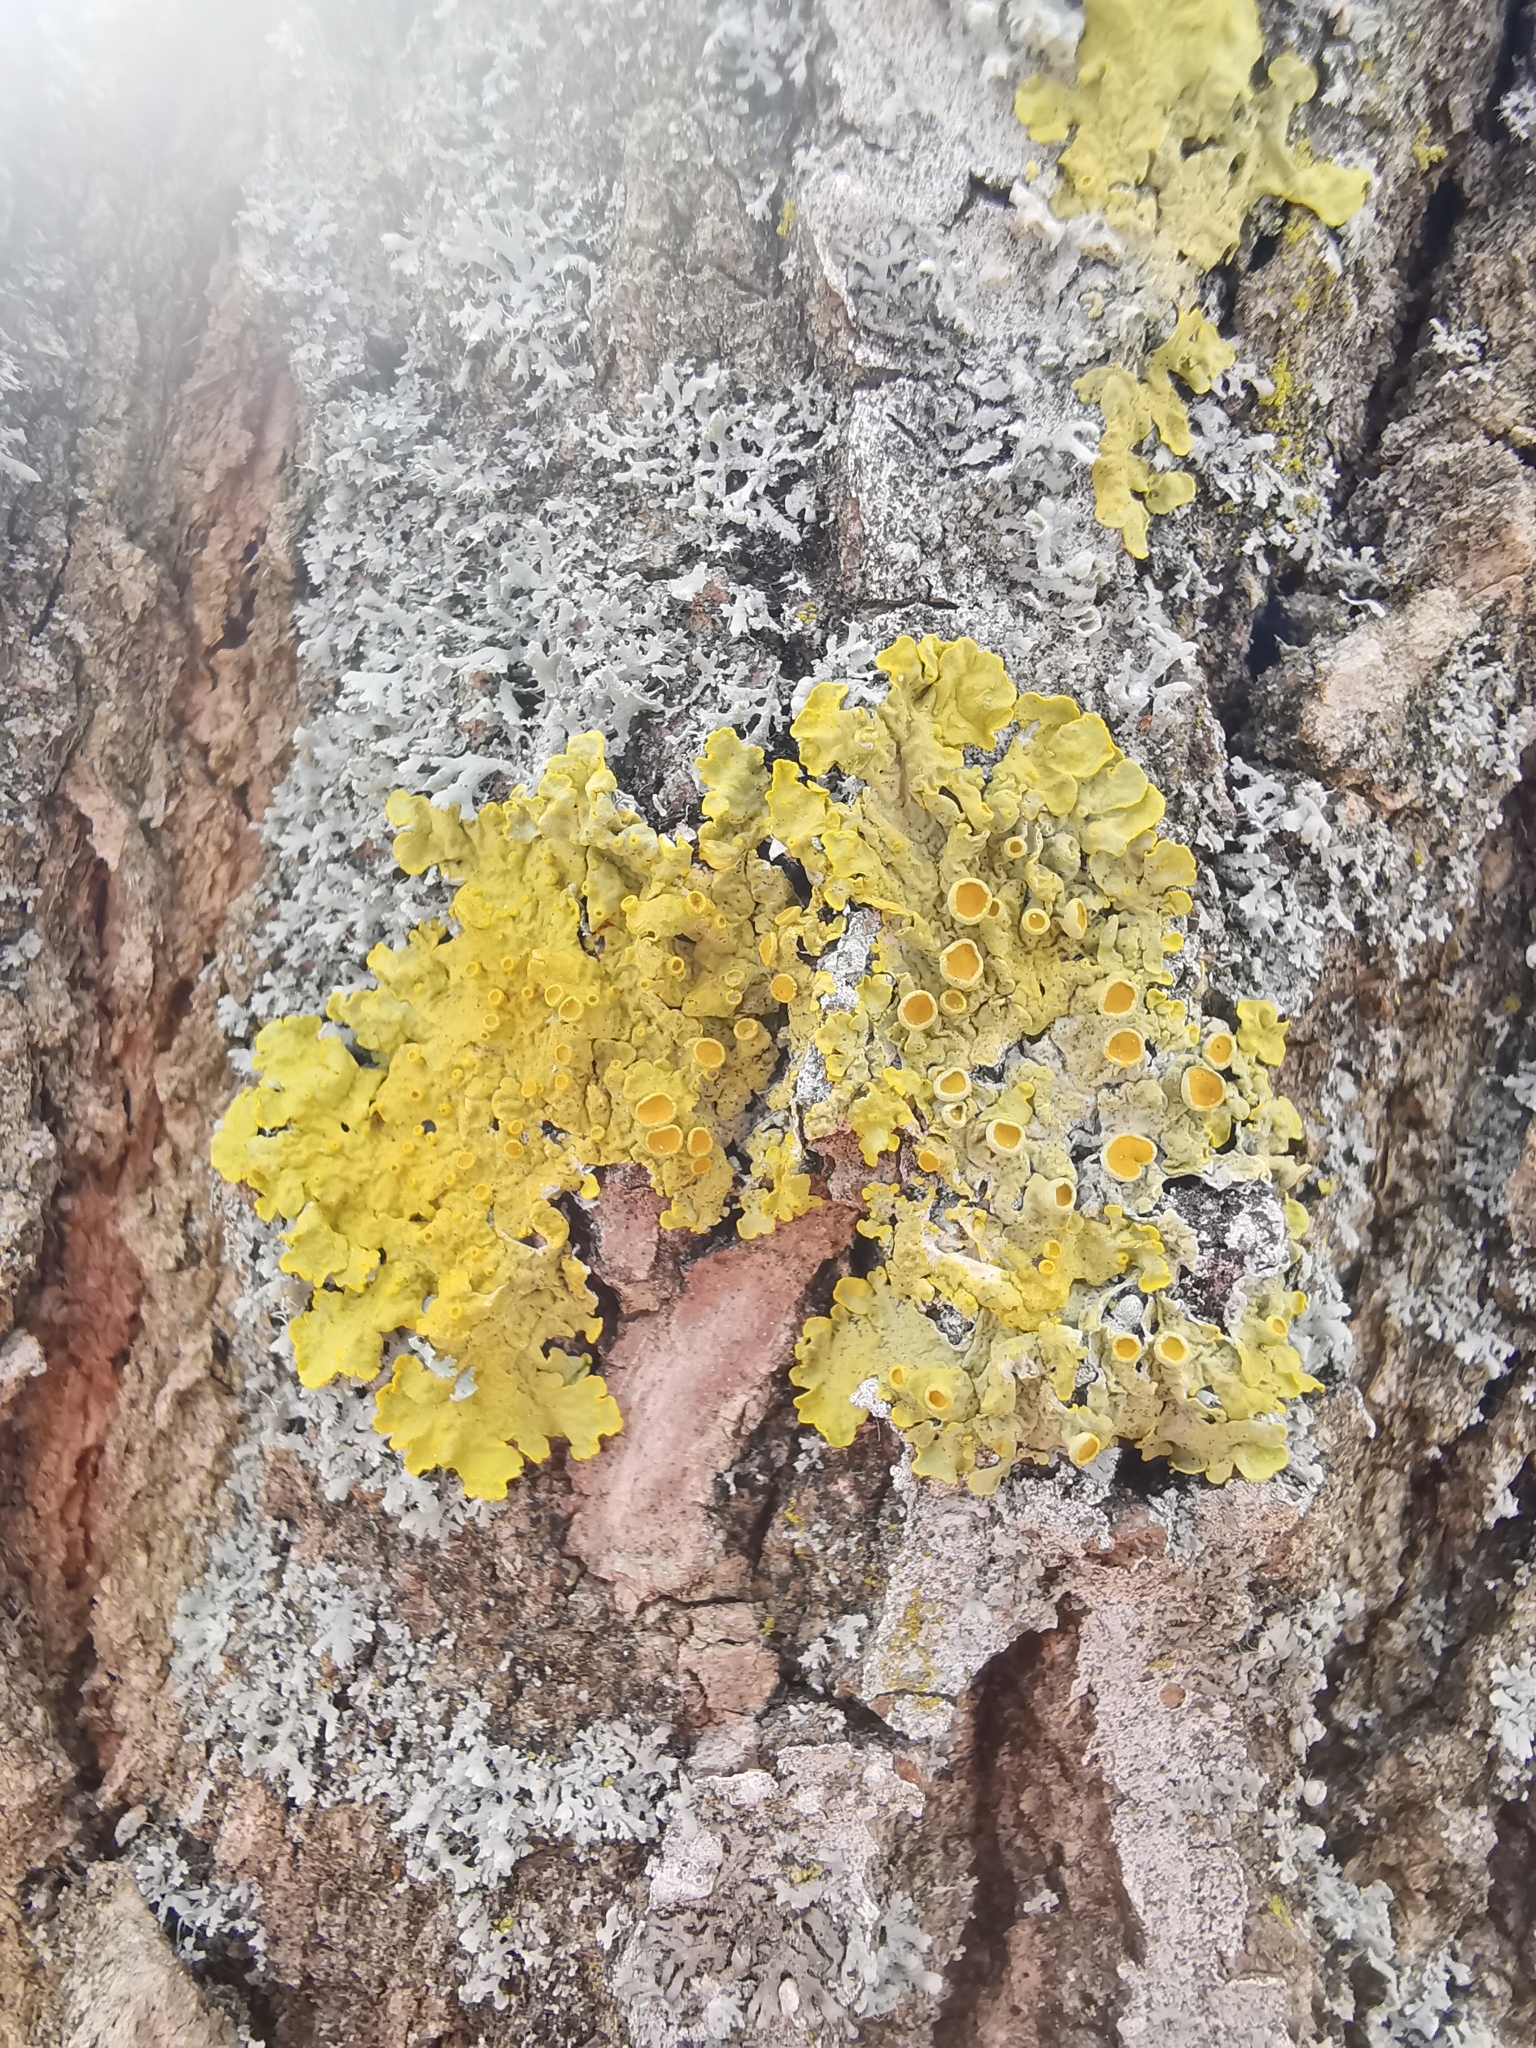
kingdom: Fungi
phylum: Ascomycota
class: Lecanoromycetes
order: Teloschistales
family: Teloschistaceae
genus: Xanthoria
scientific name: Xanthoria parietina
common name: Common orange lichen
